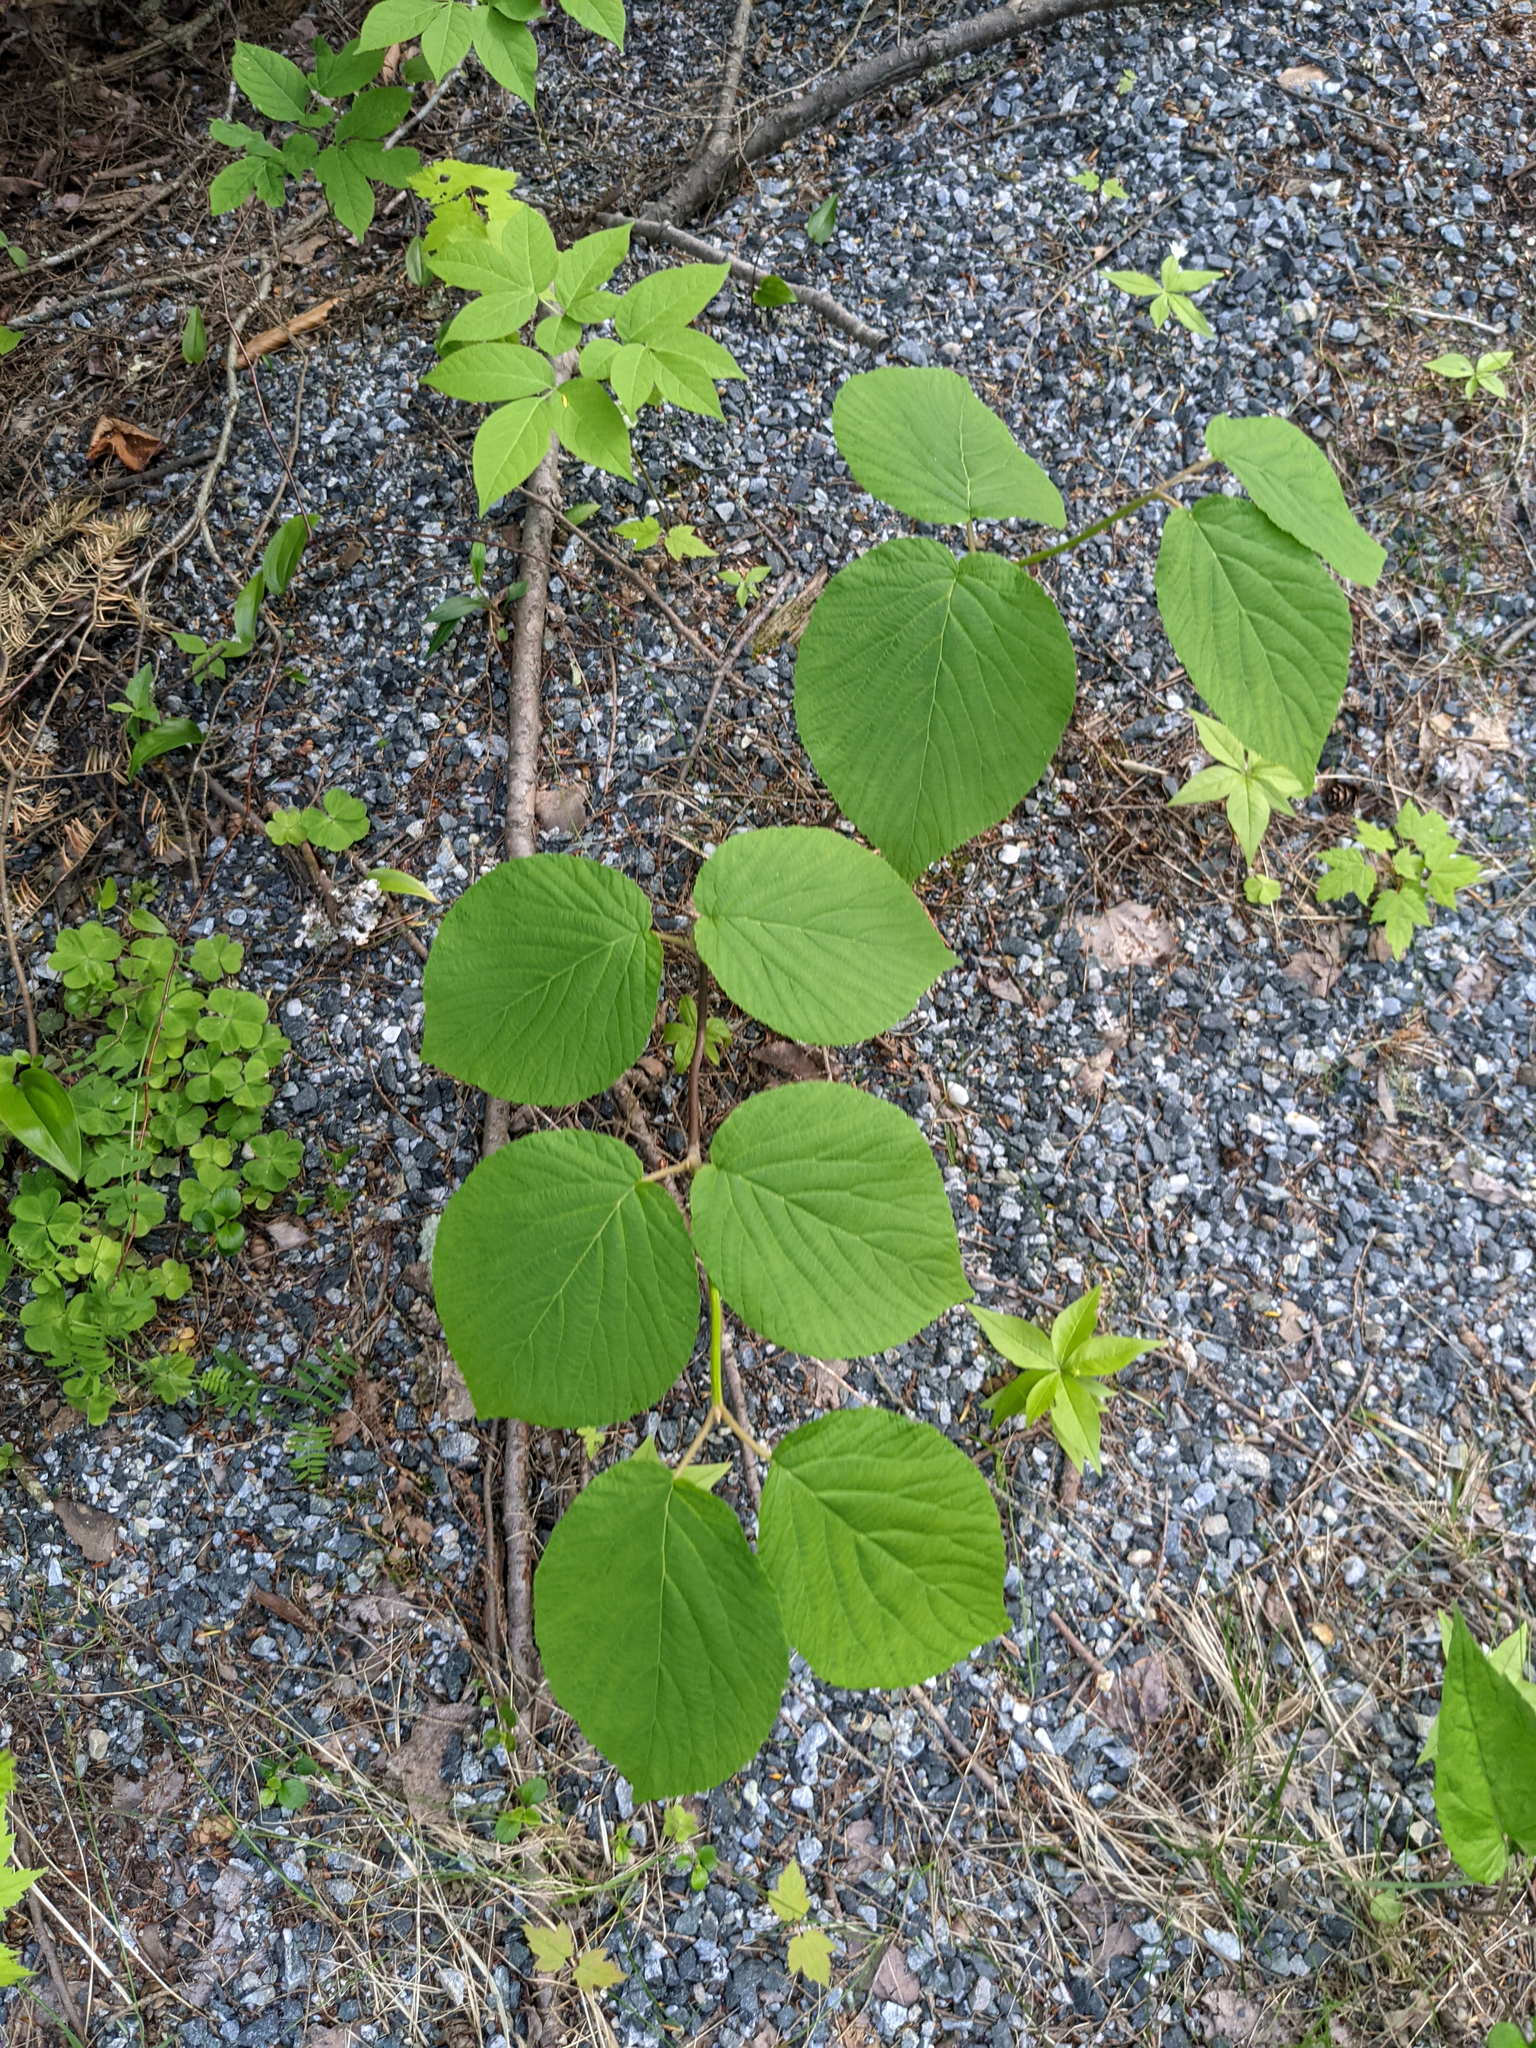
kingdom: Plantae
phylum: Tracheophyta
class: Magnoliopsida
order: Dipsacales
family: Viburnaceae
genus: Viburnum
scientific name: Viburnum lantanoides
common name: Hobblebush
